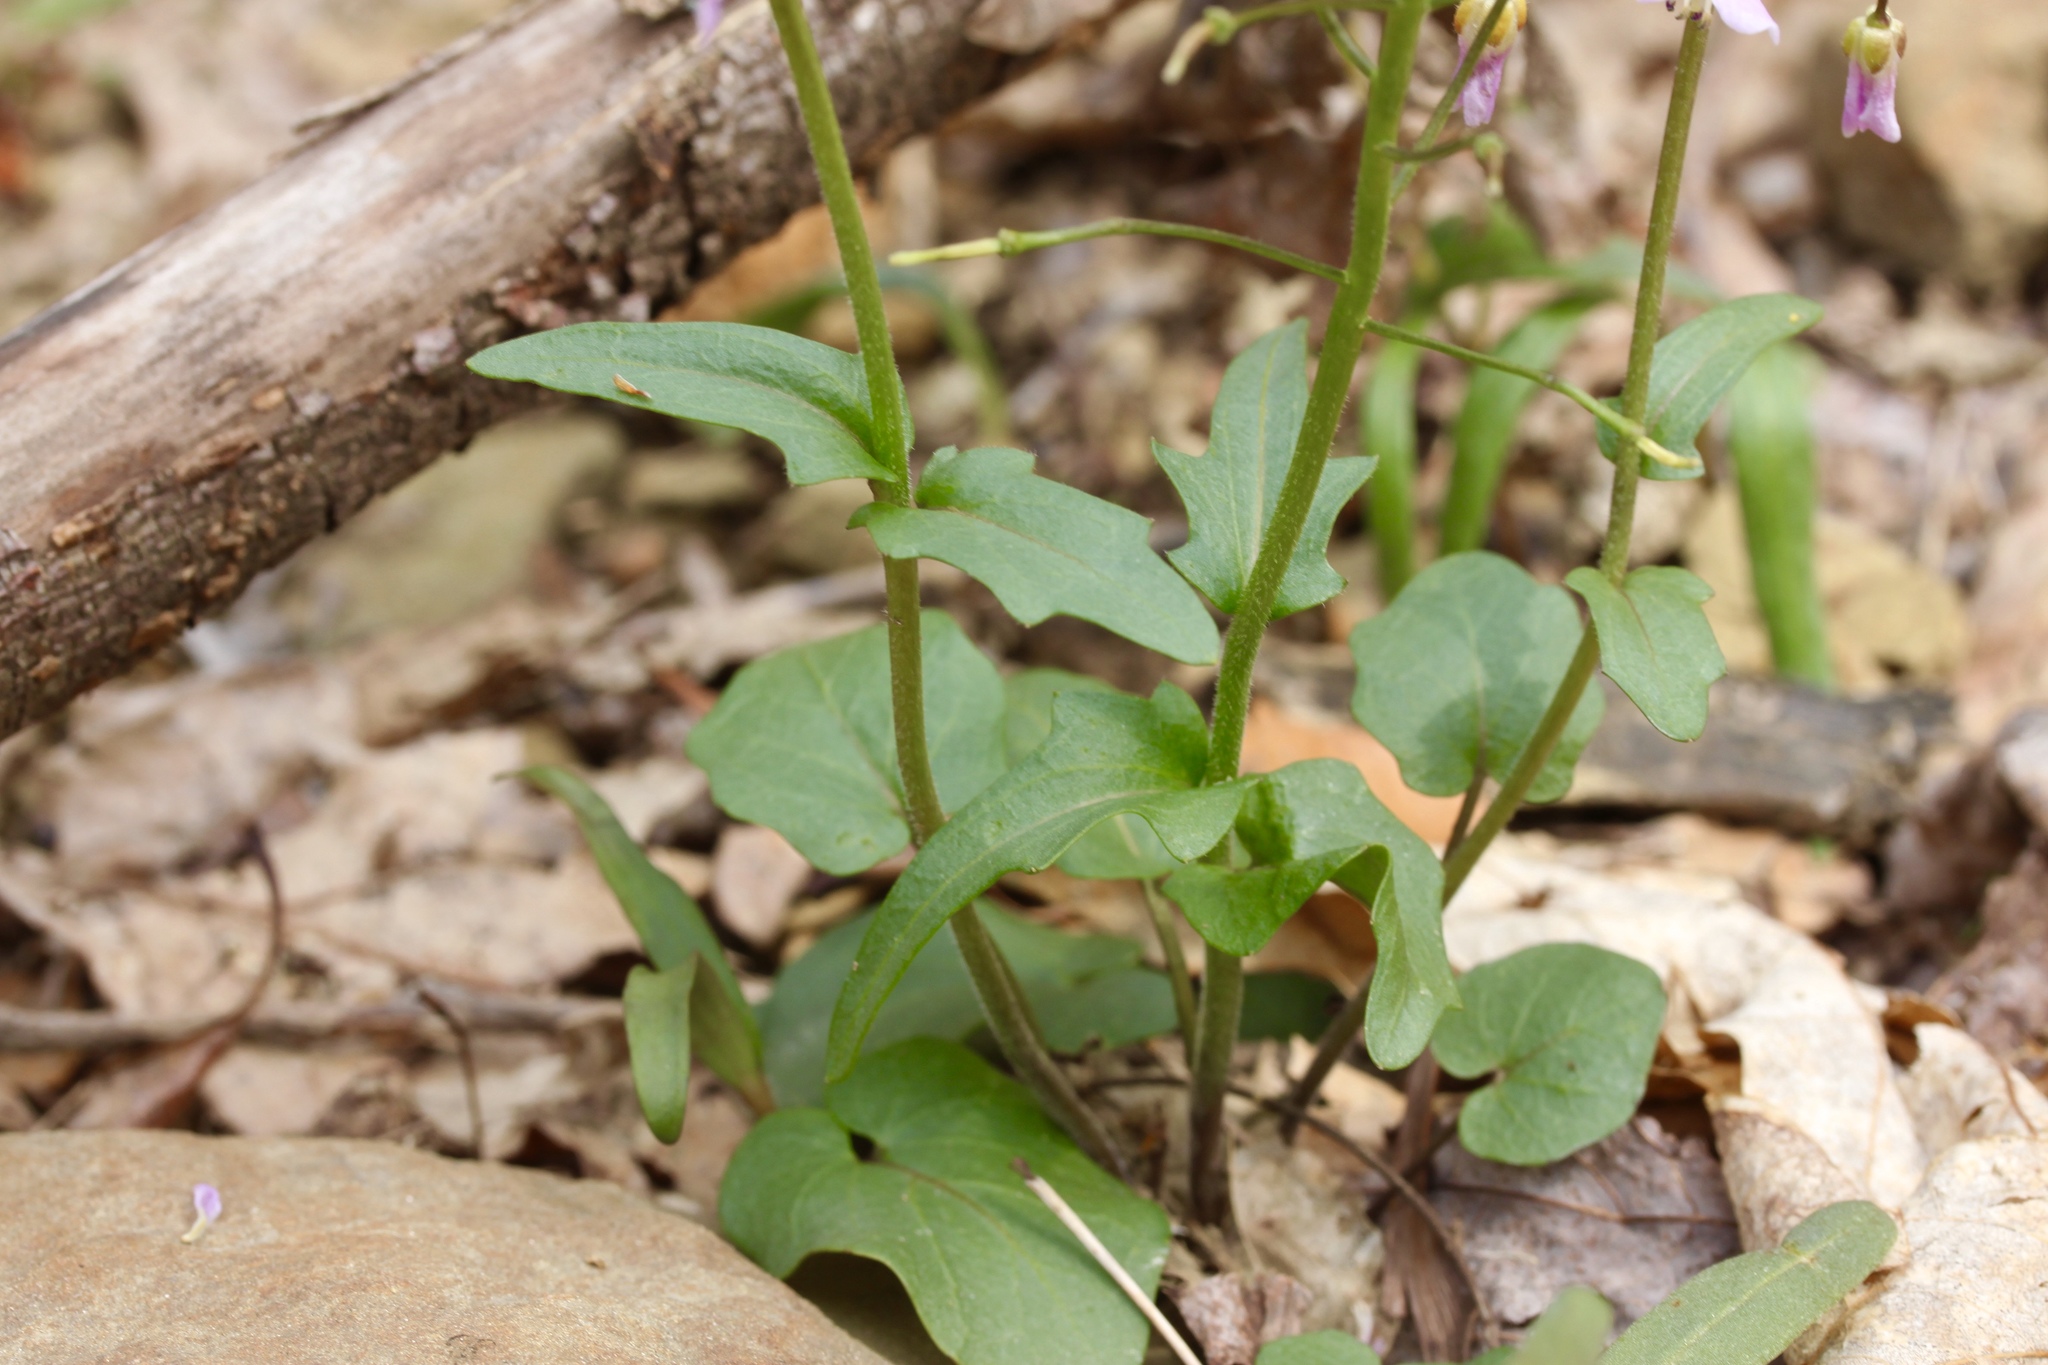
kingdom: Plantae
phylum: Tracheophyta
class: Magnoliopsida
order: Brassicales
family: Brassicaceae
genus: Cardamine
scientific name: Cardamine douglassii
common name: Purple cress
